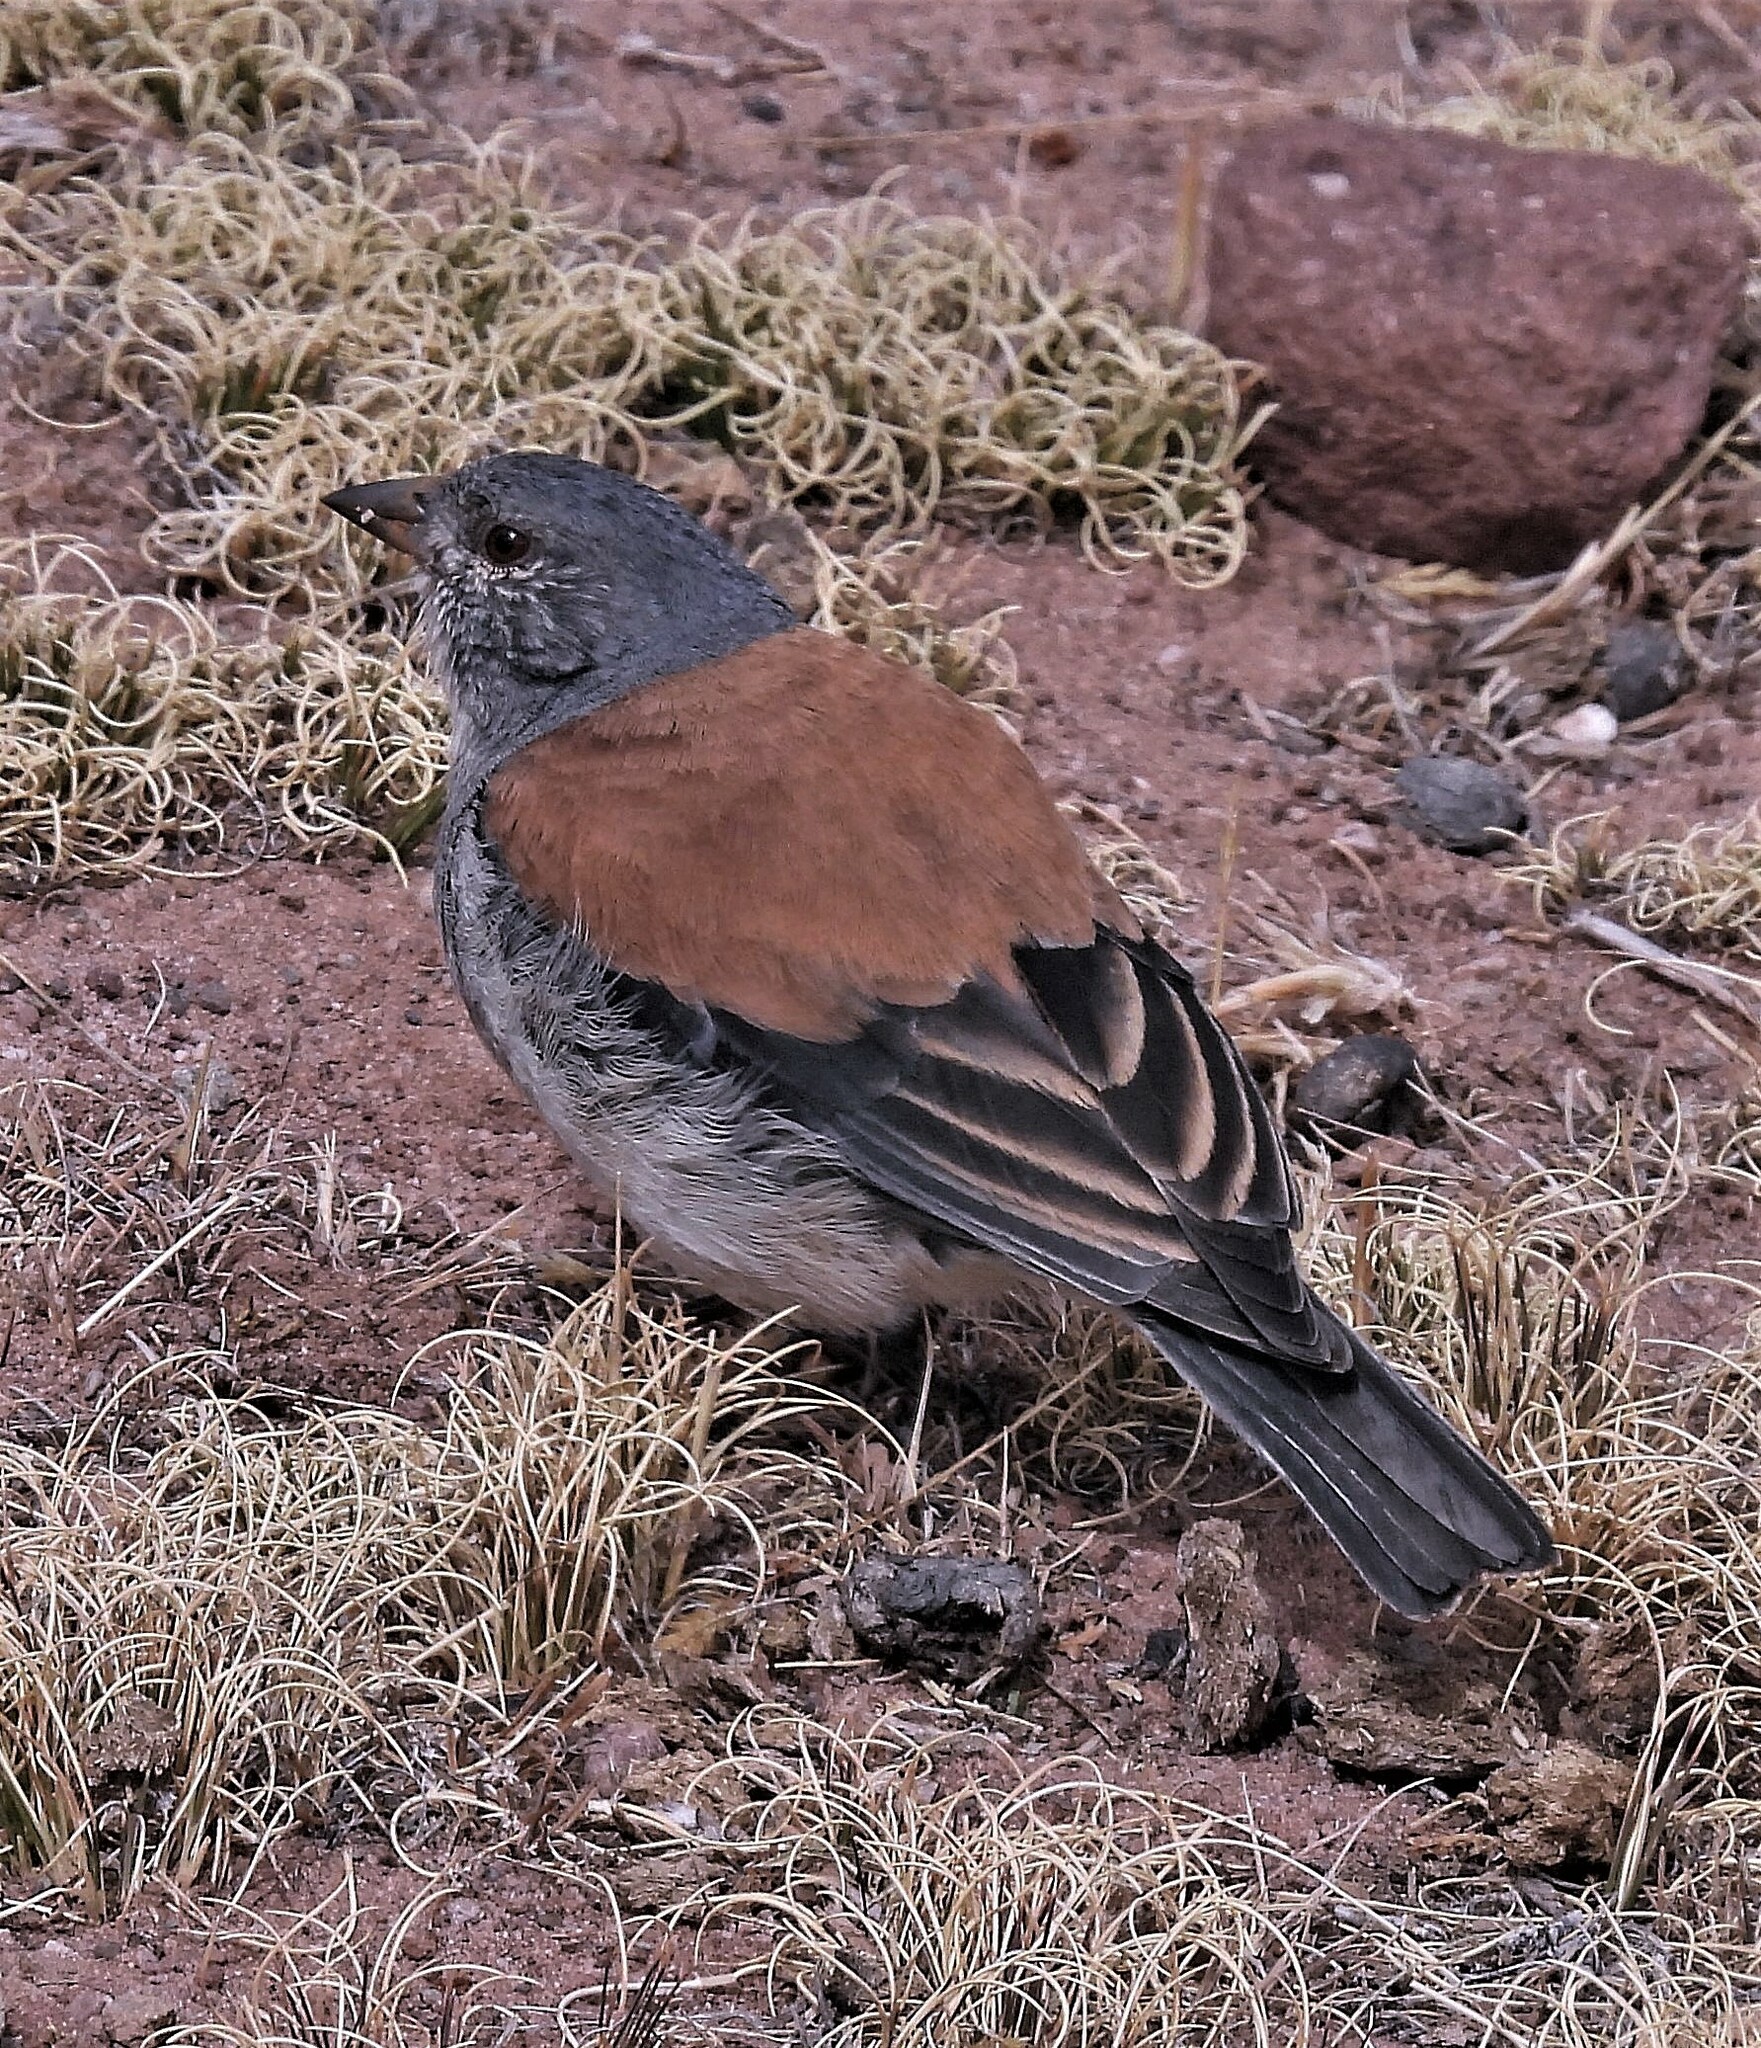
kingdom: Animalia
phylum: Chordata
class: Aves
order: Passeriformes
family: Thraupidae
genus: Idiopsar
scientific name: Idiopsar dorsalis
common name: Red-backed sierra finch
